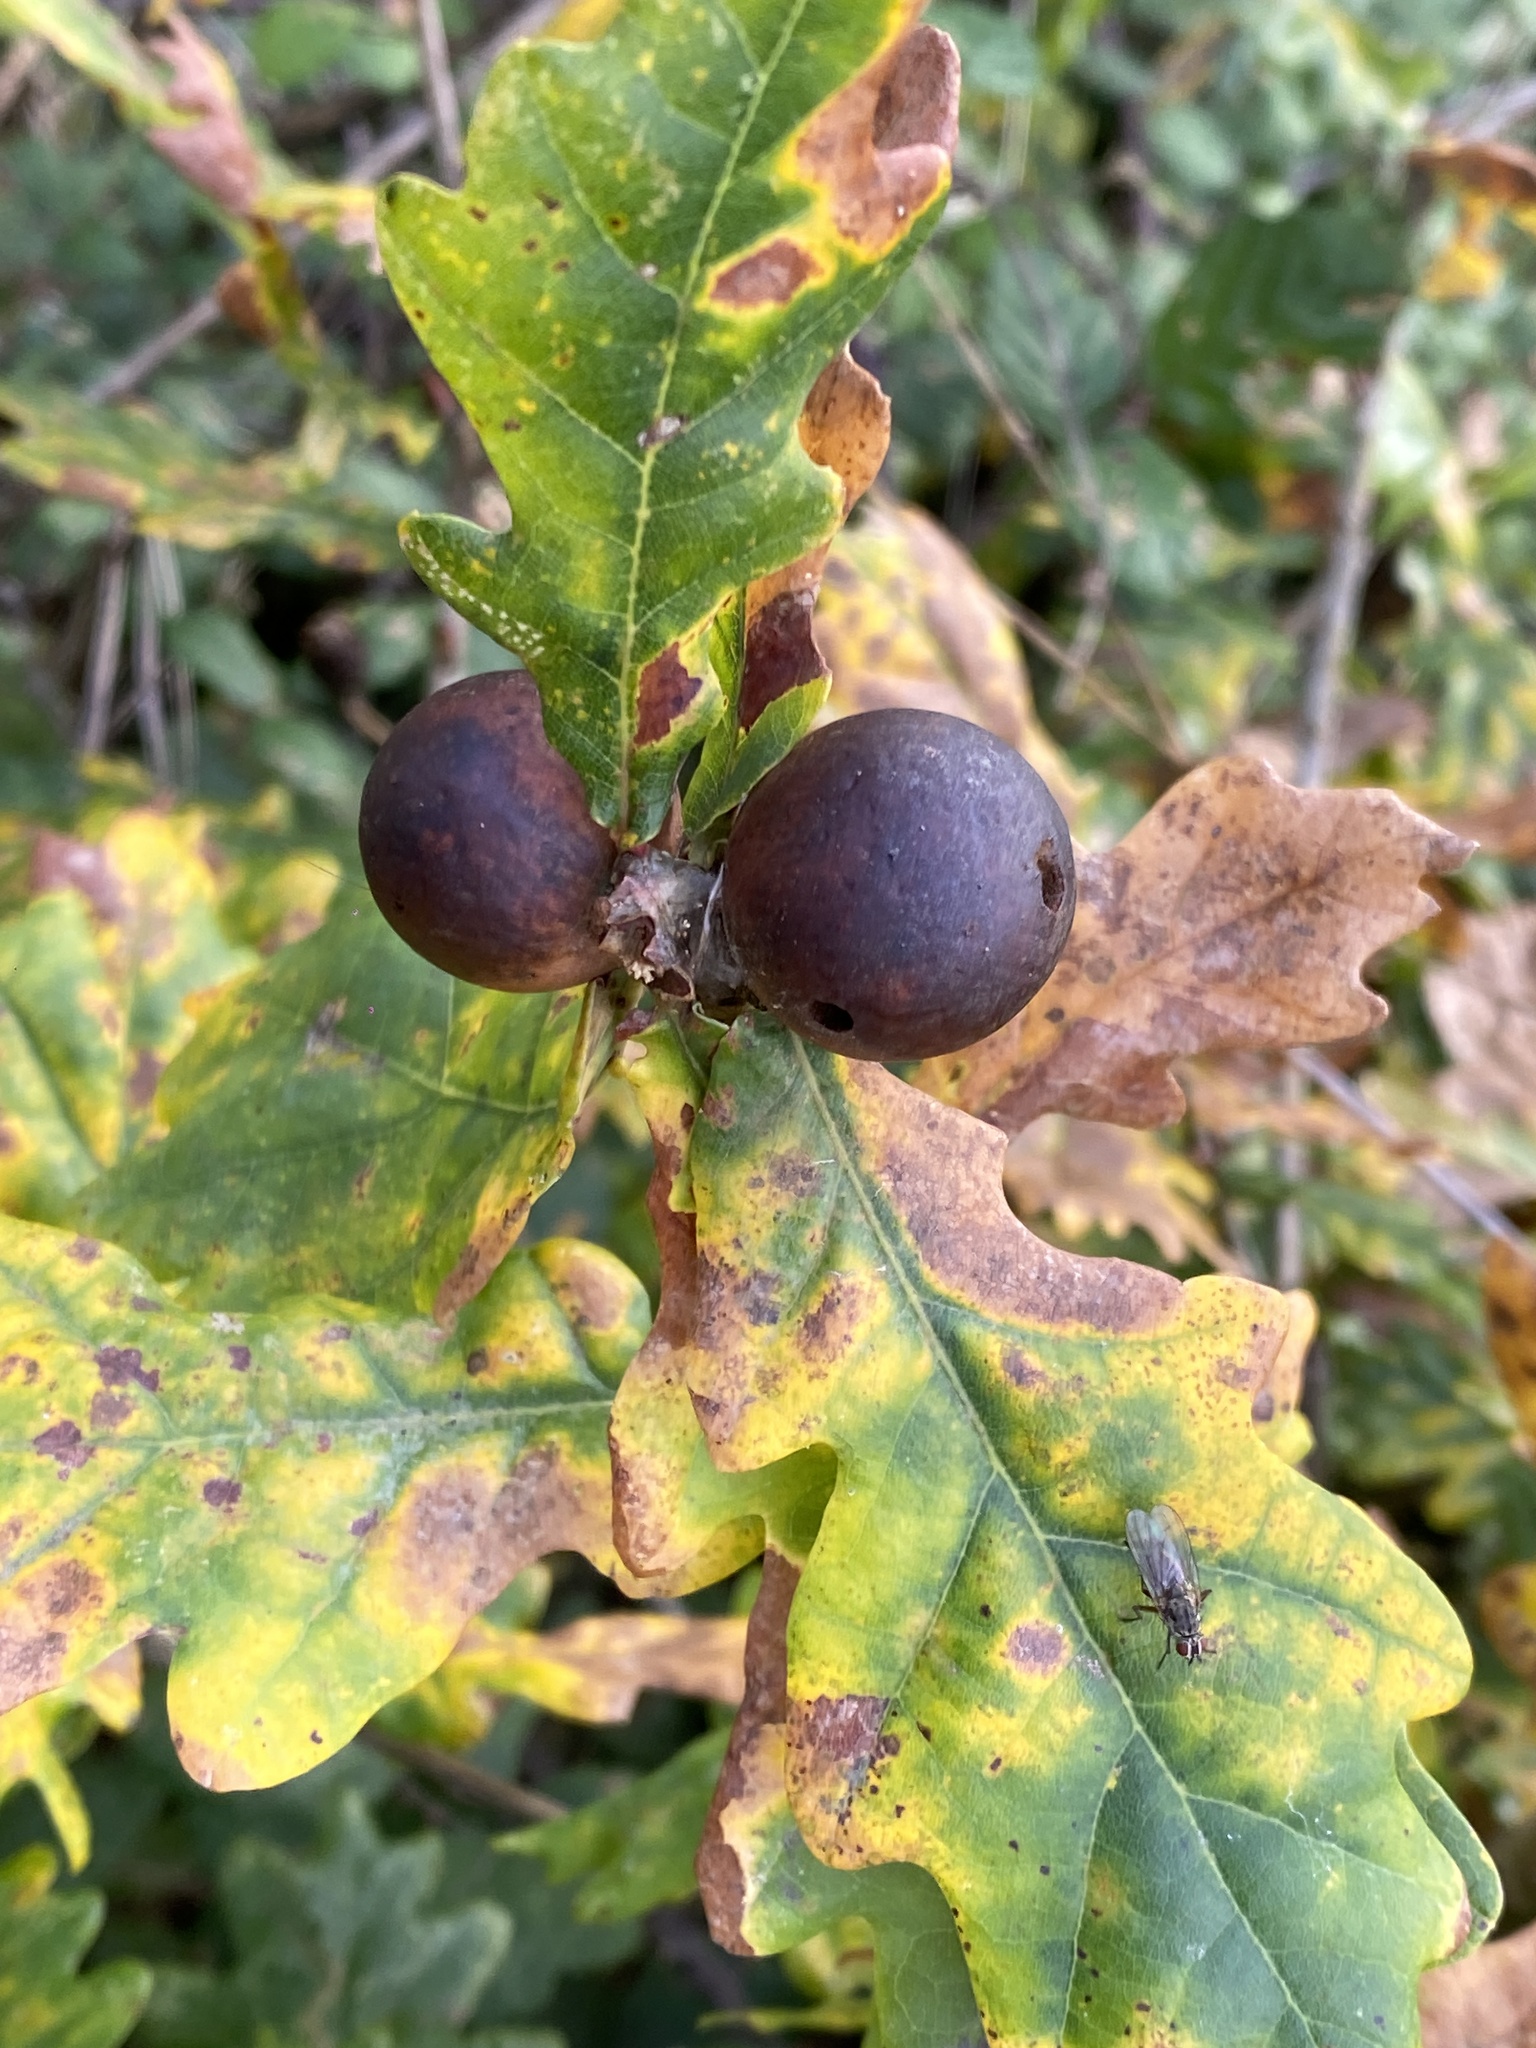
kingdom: Animalia
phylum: Arthropoda
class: Insecta
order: Hymenoptera
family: Cynipidae
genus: Andricus
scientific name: Andricus kollari
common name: Marble gall
